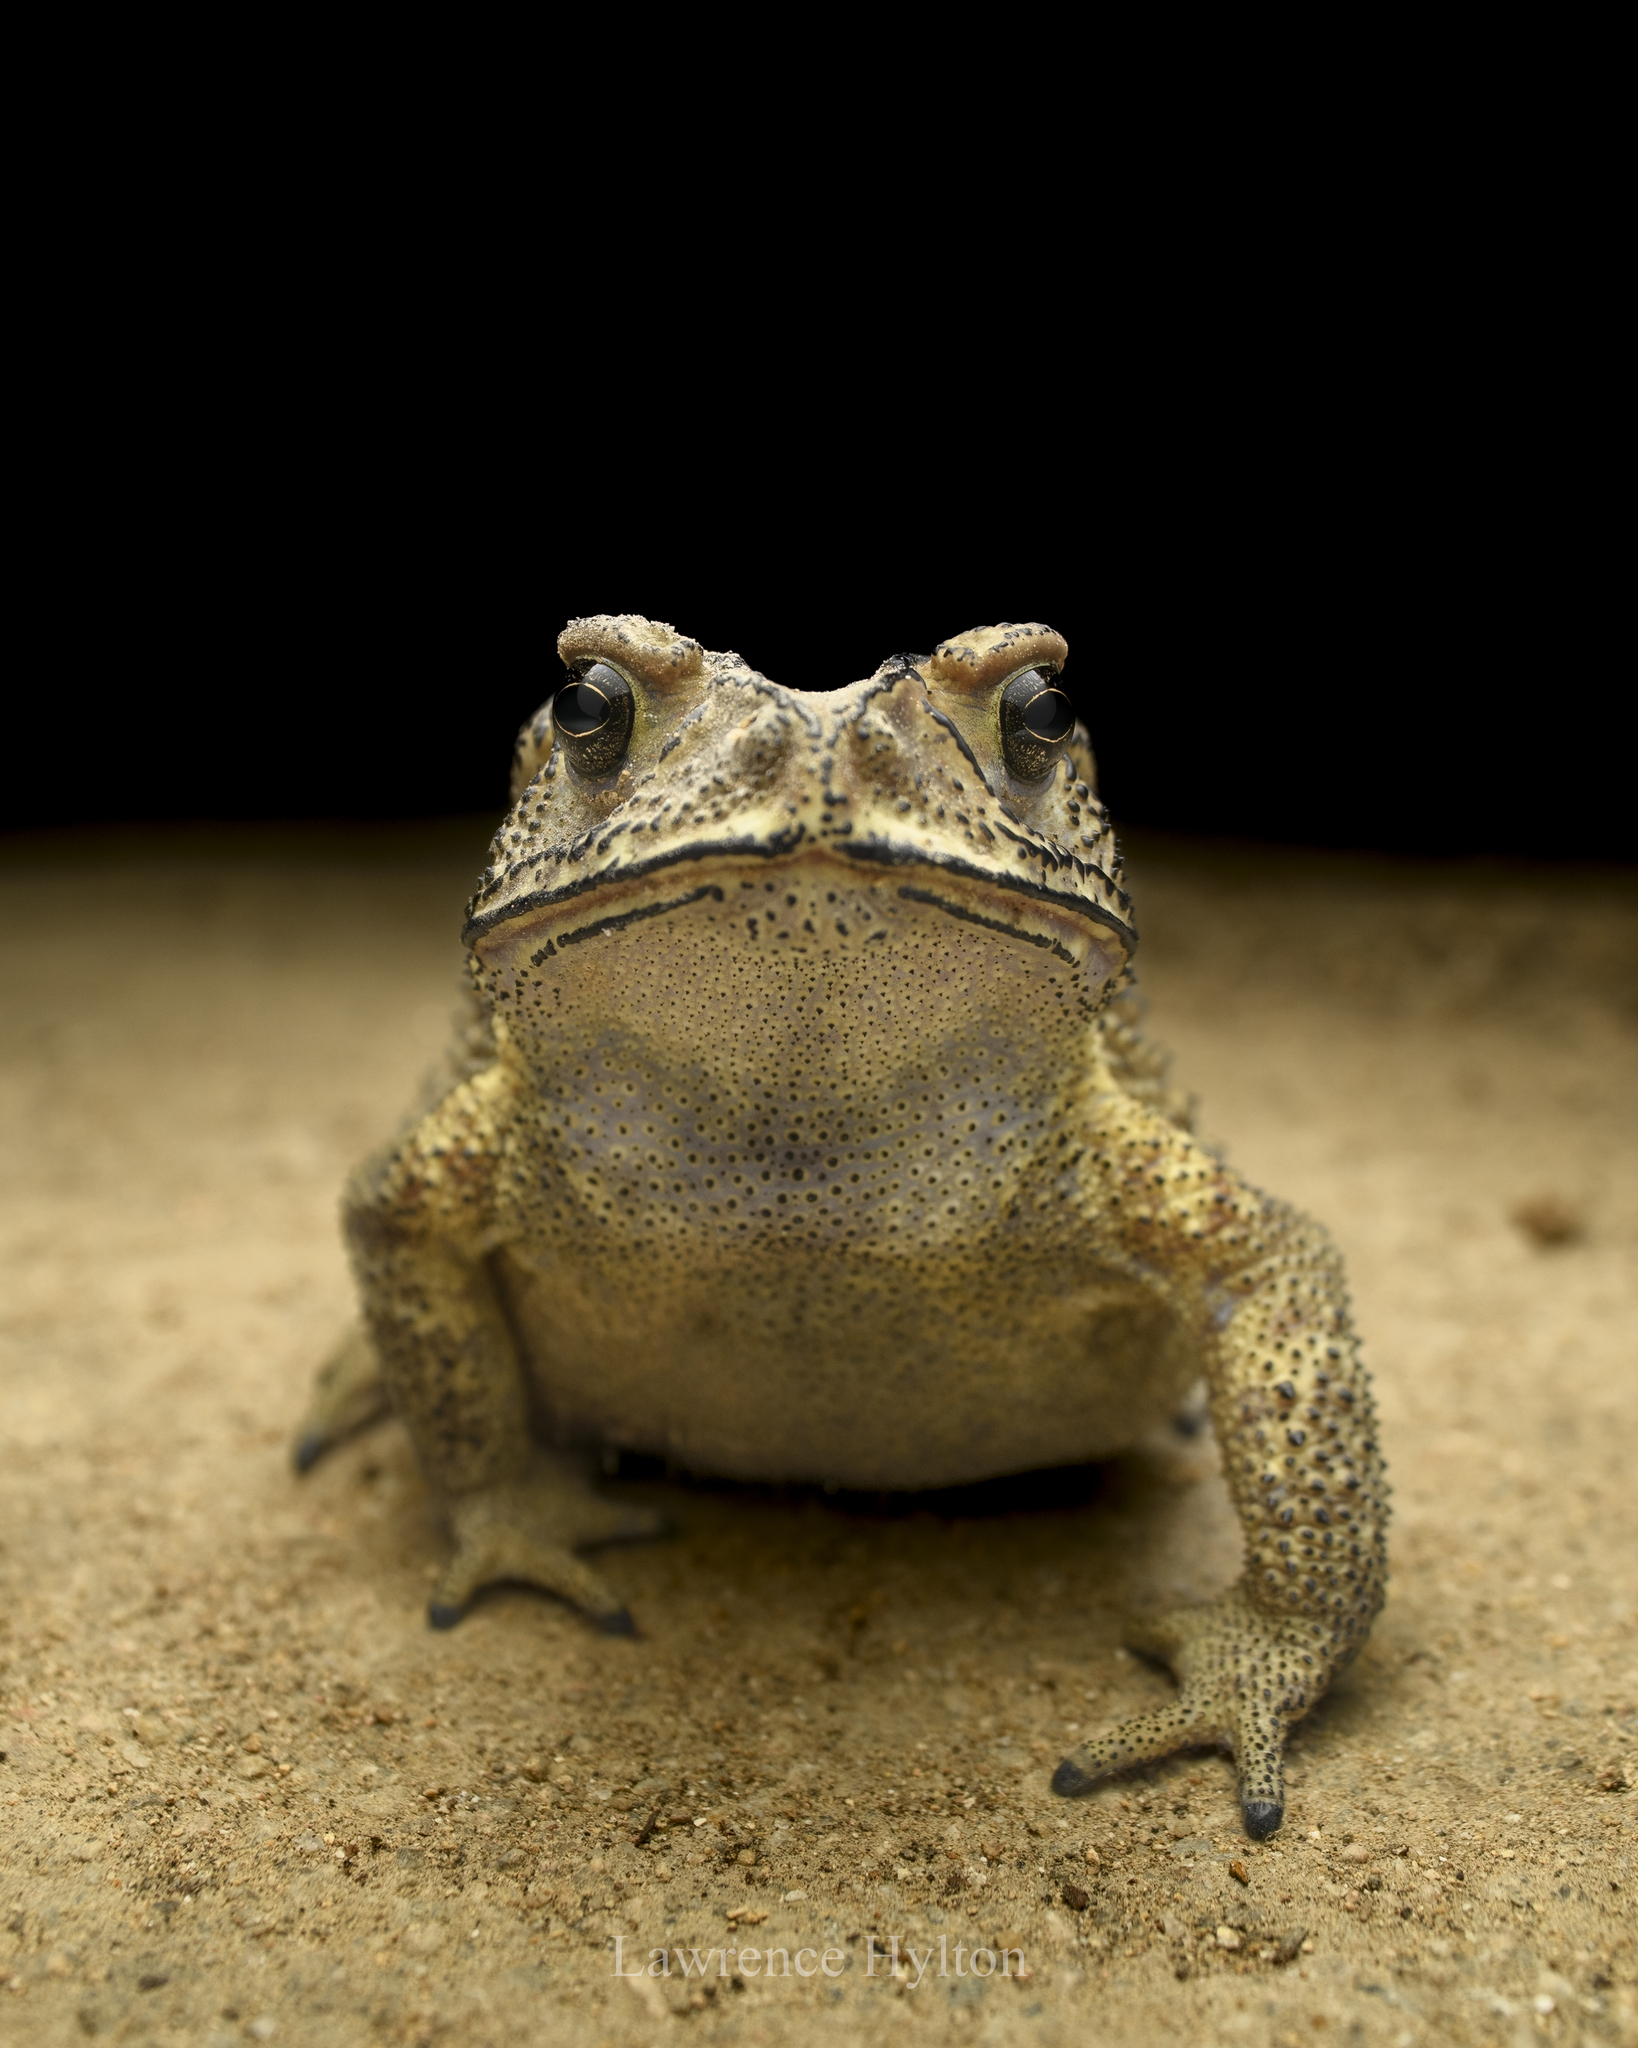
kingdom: Animalia
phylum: Chordata
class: Amphibia
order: Anura
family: Bufonidae
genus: Duttaphrynus
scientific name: Duttaphrynus melanostictus
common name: Common sunda toad
